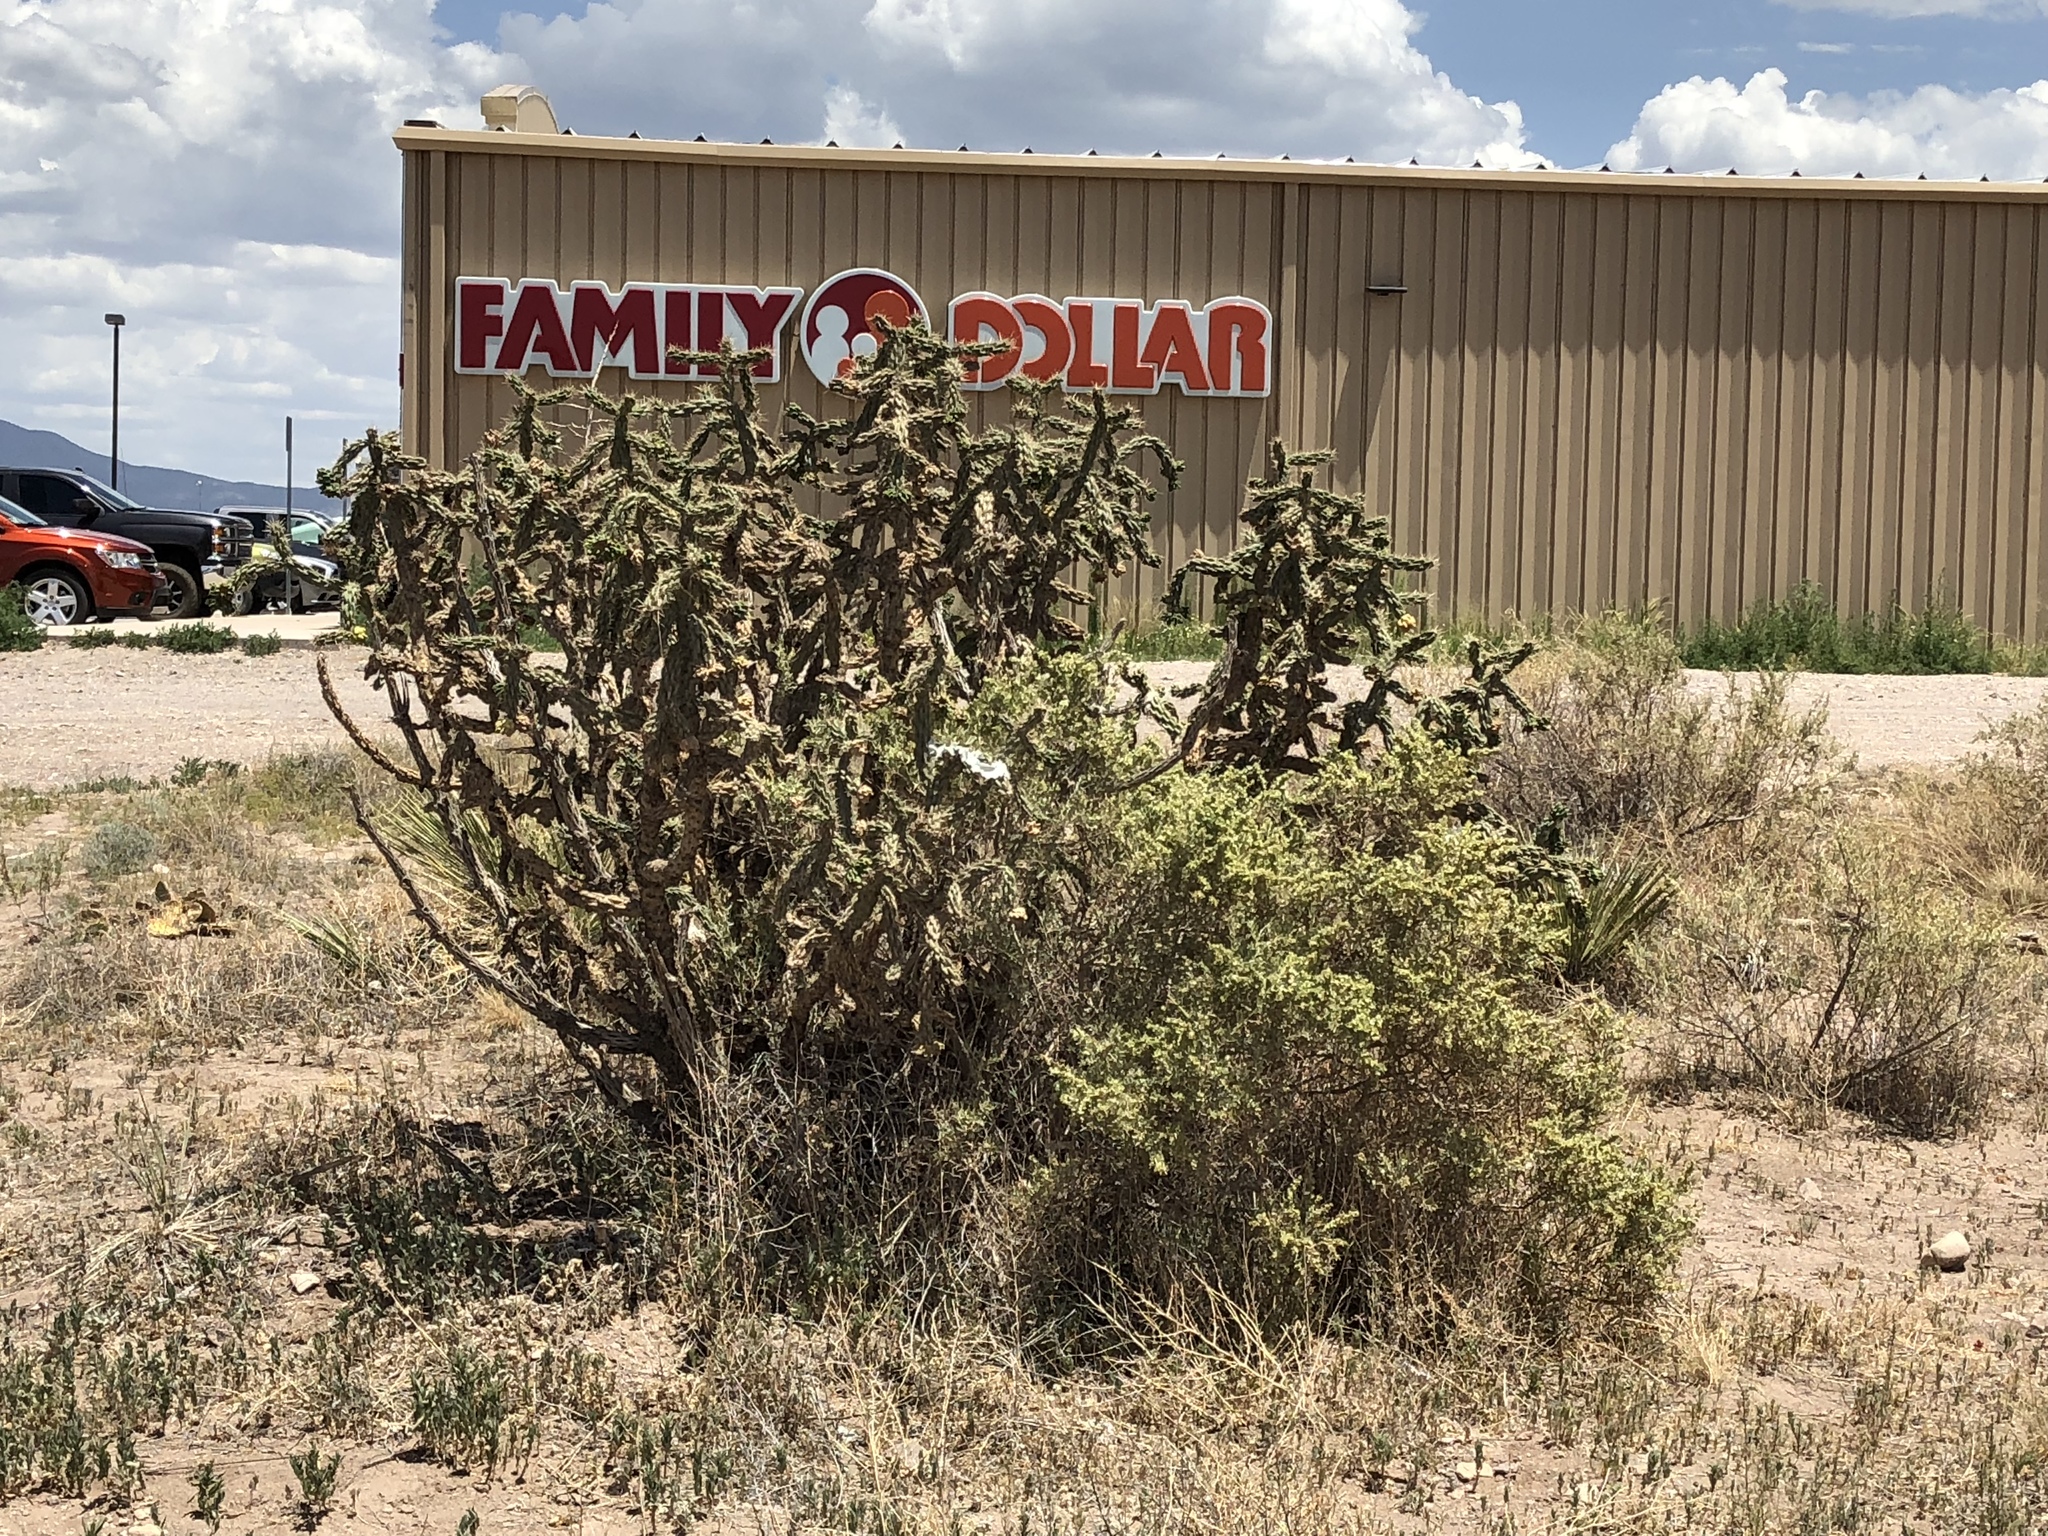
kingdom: Plantae
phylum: Tracheophyta
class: Magnoliopsida
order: Caryophyllales
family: Cactaceae
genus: Cylindropuntia
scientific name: Cylindropuntia imbricata
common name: Candelabrum cactus
